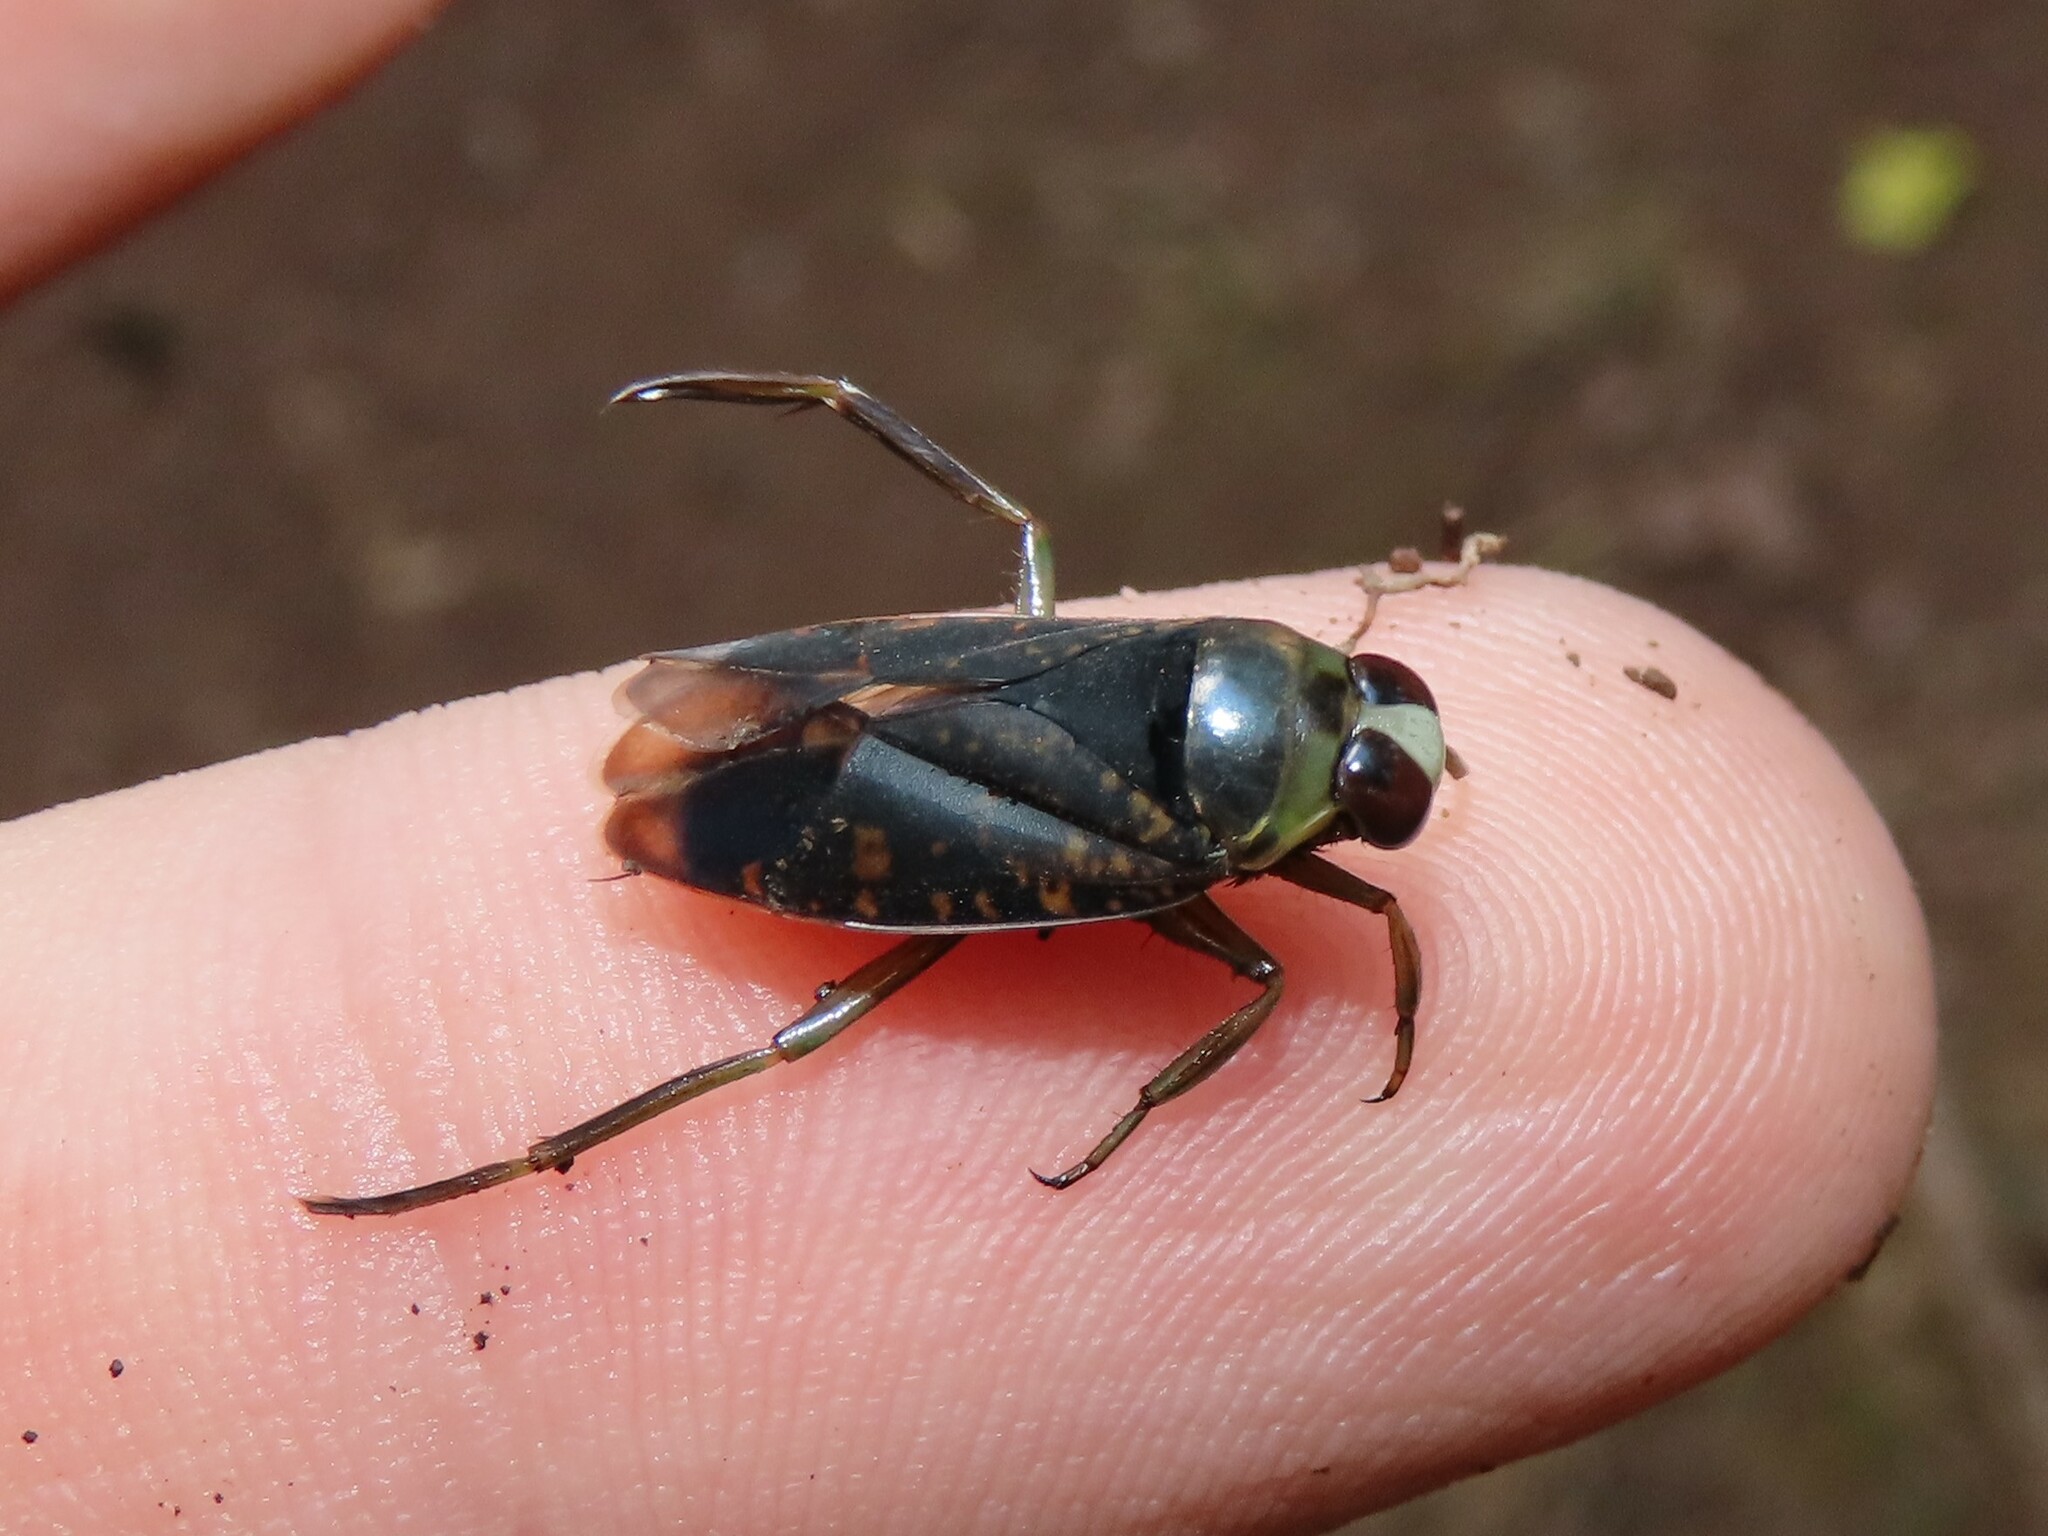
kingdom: Animalia
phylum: Arthropoda
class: Insecta
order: Hemiptera
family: Notonectidae
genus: Notonecta
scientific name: Notonecta irrorata
